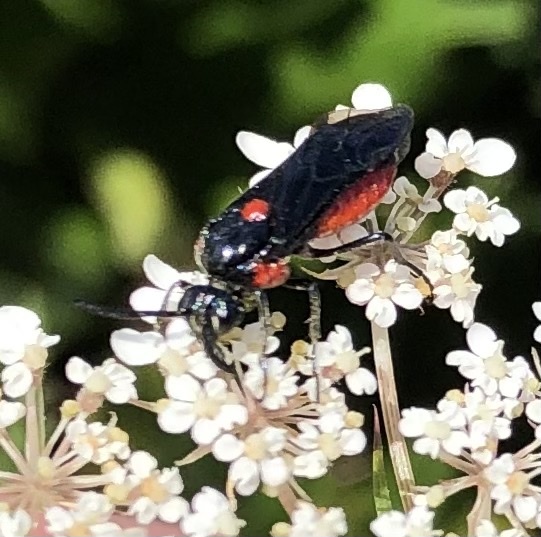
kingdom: Animalia
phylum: Arthropoda
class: Insecta
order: Hymenoptera
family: Argidae
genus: Arge
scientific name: Arge humeralis
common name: Poison ivy sawfly
